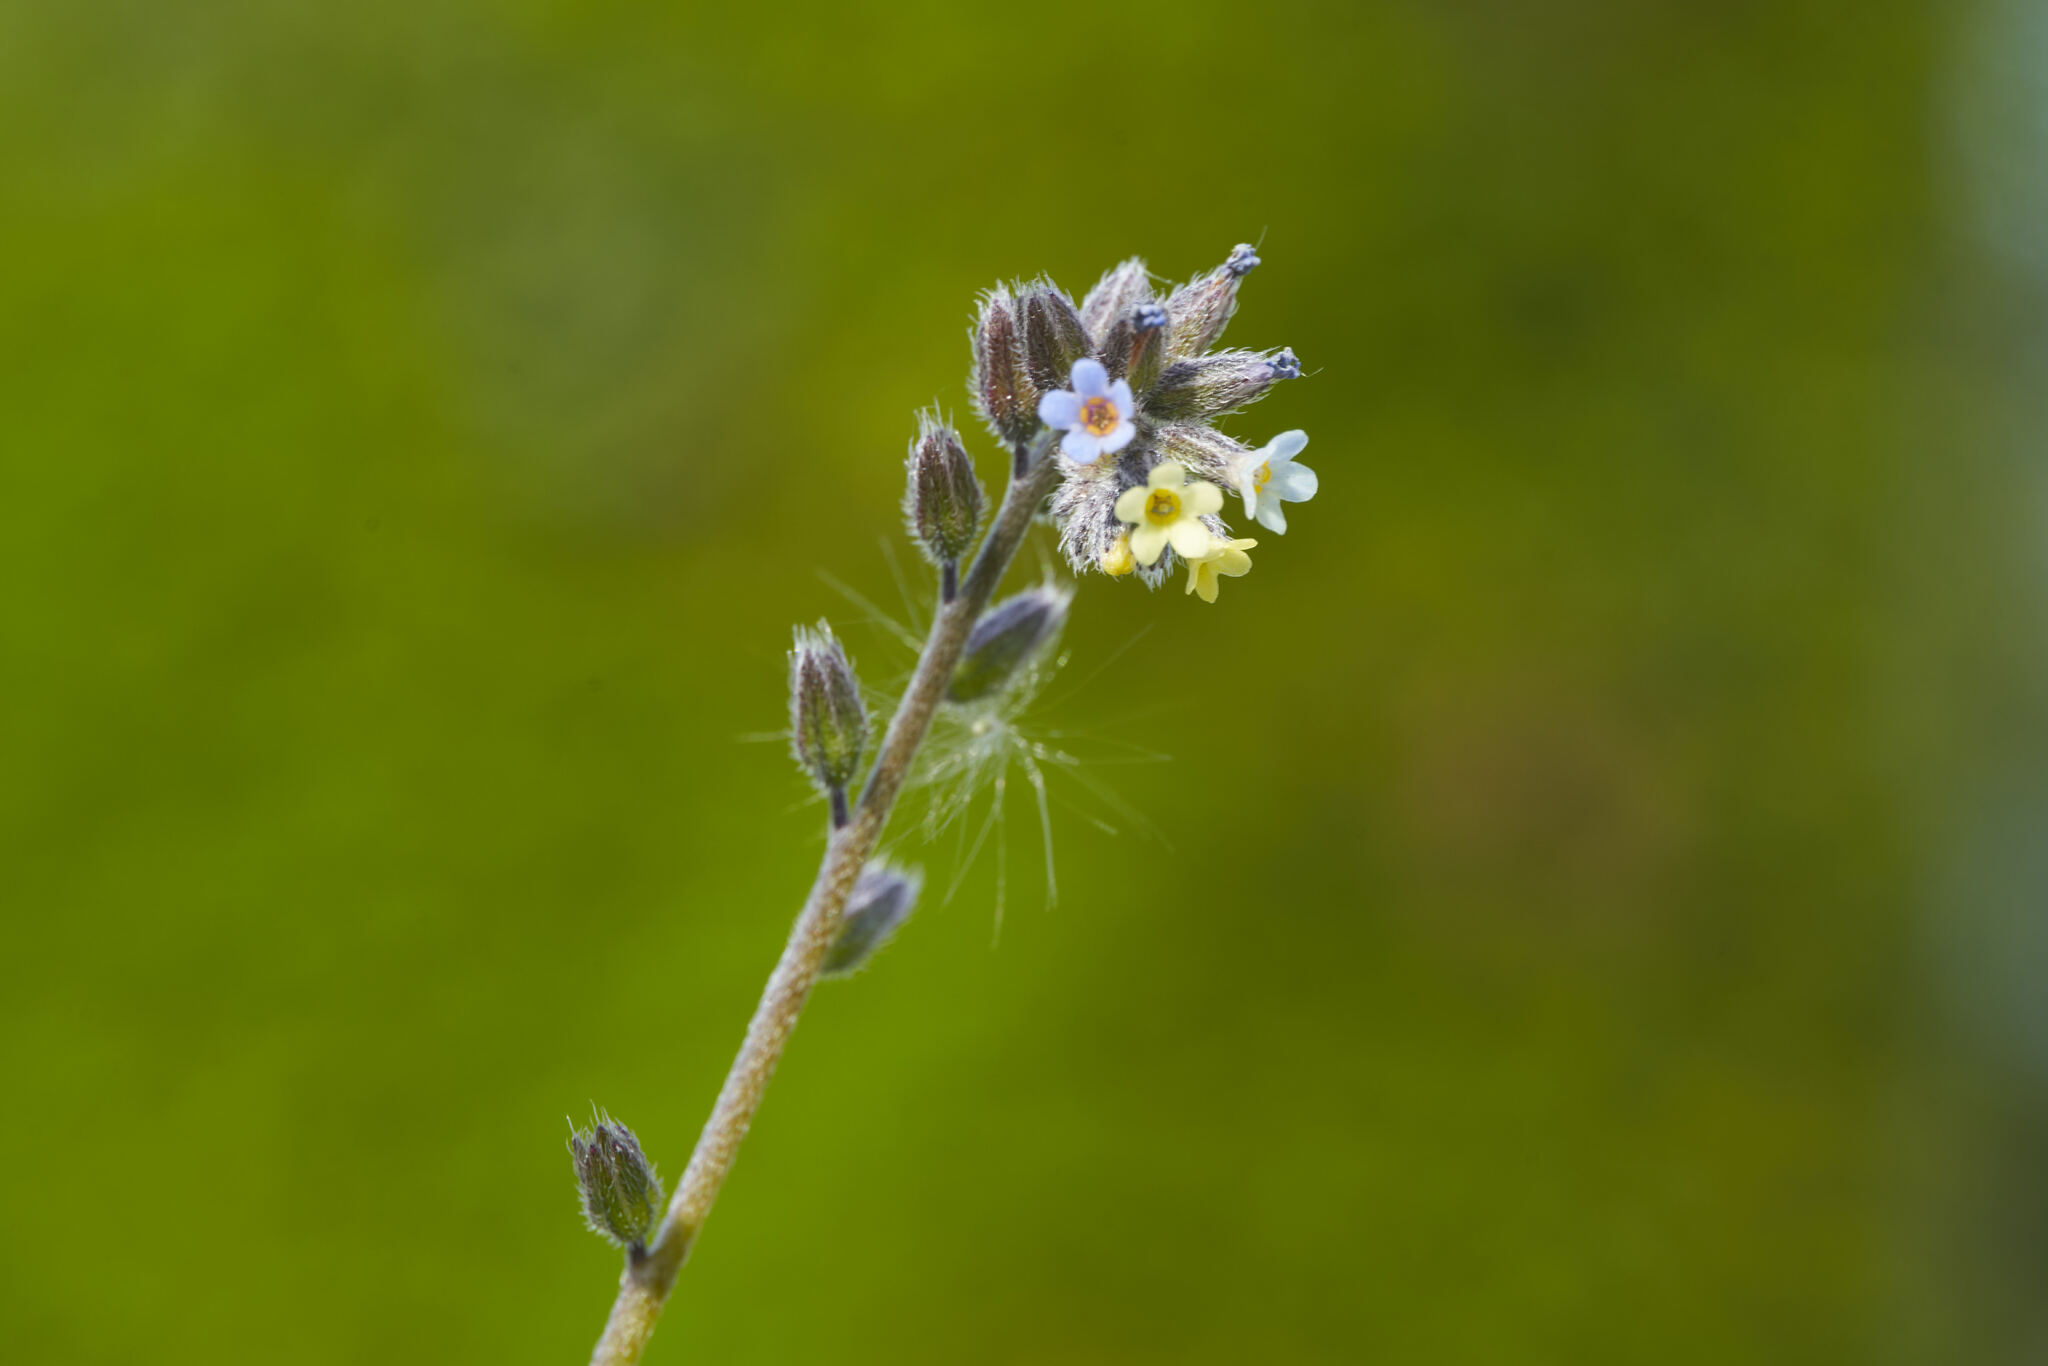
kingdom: Plantae
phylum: Tracheophyta
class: Magnoliopsida
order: Boraginales
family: Boraginaceae
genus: Myosotis
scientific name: Myosotis discolor
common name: Changing forget-me-not
